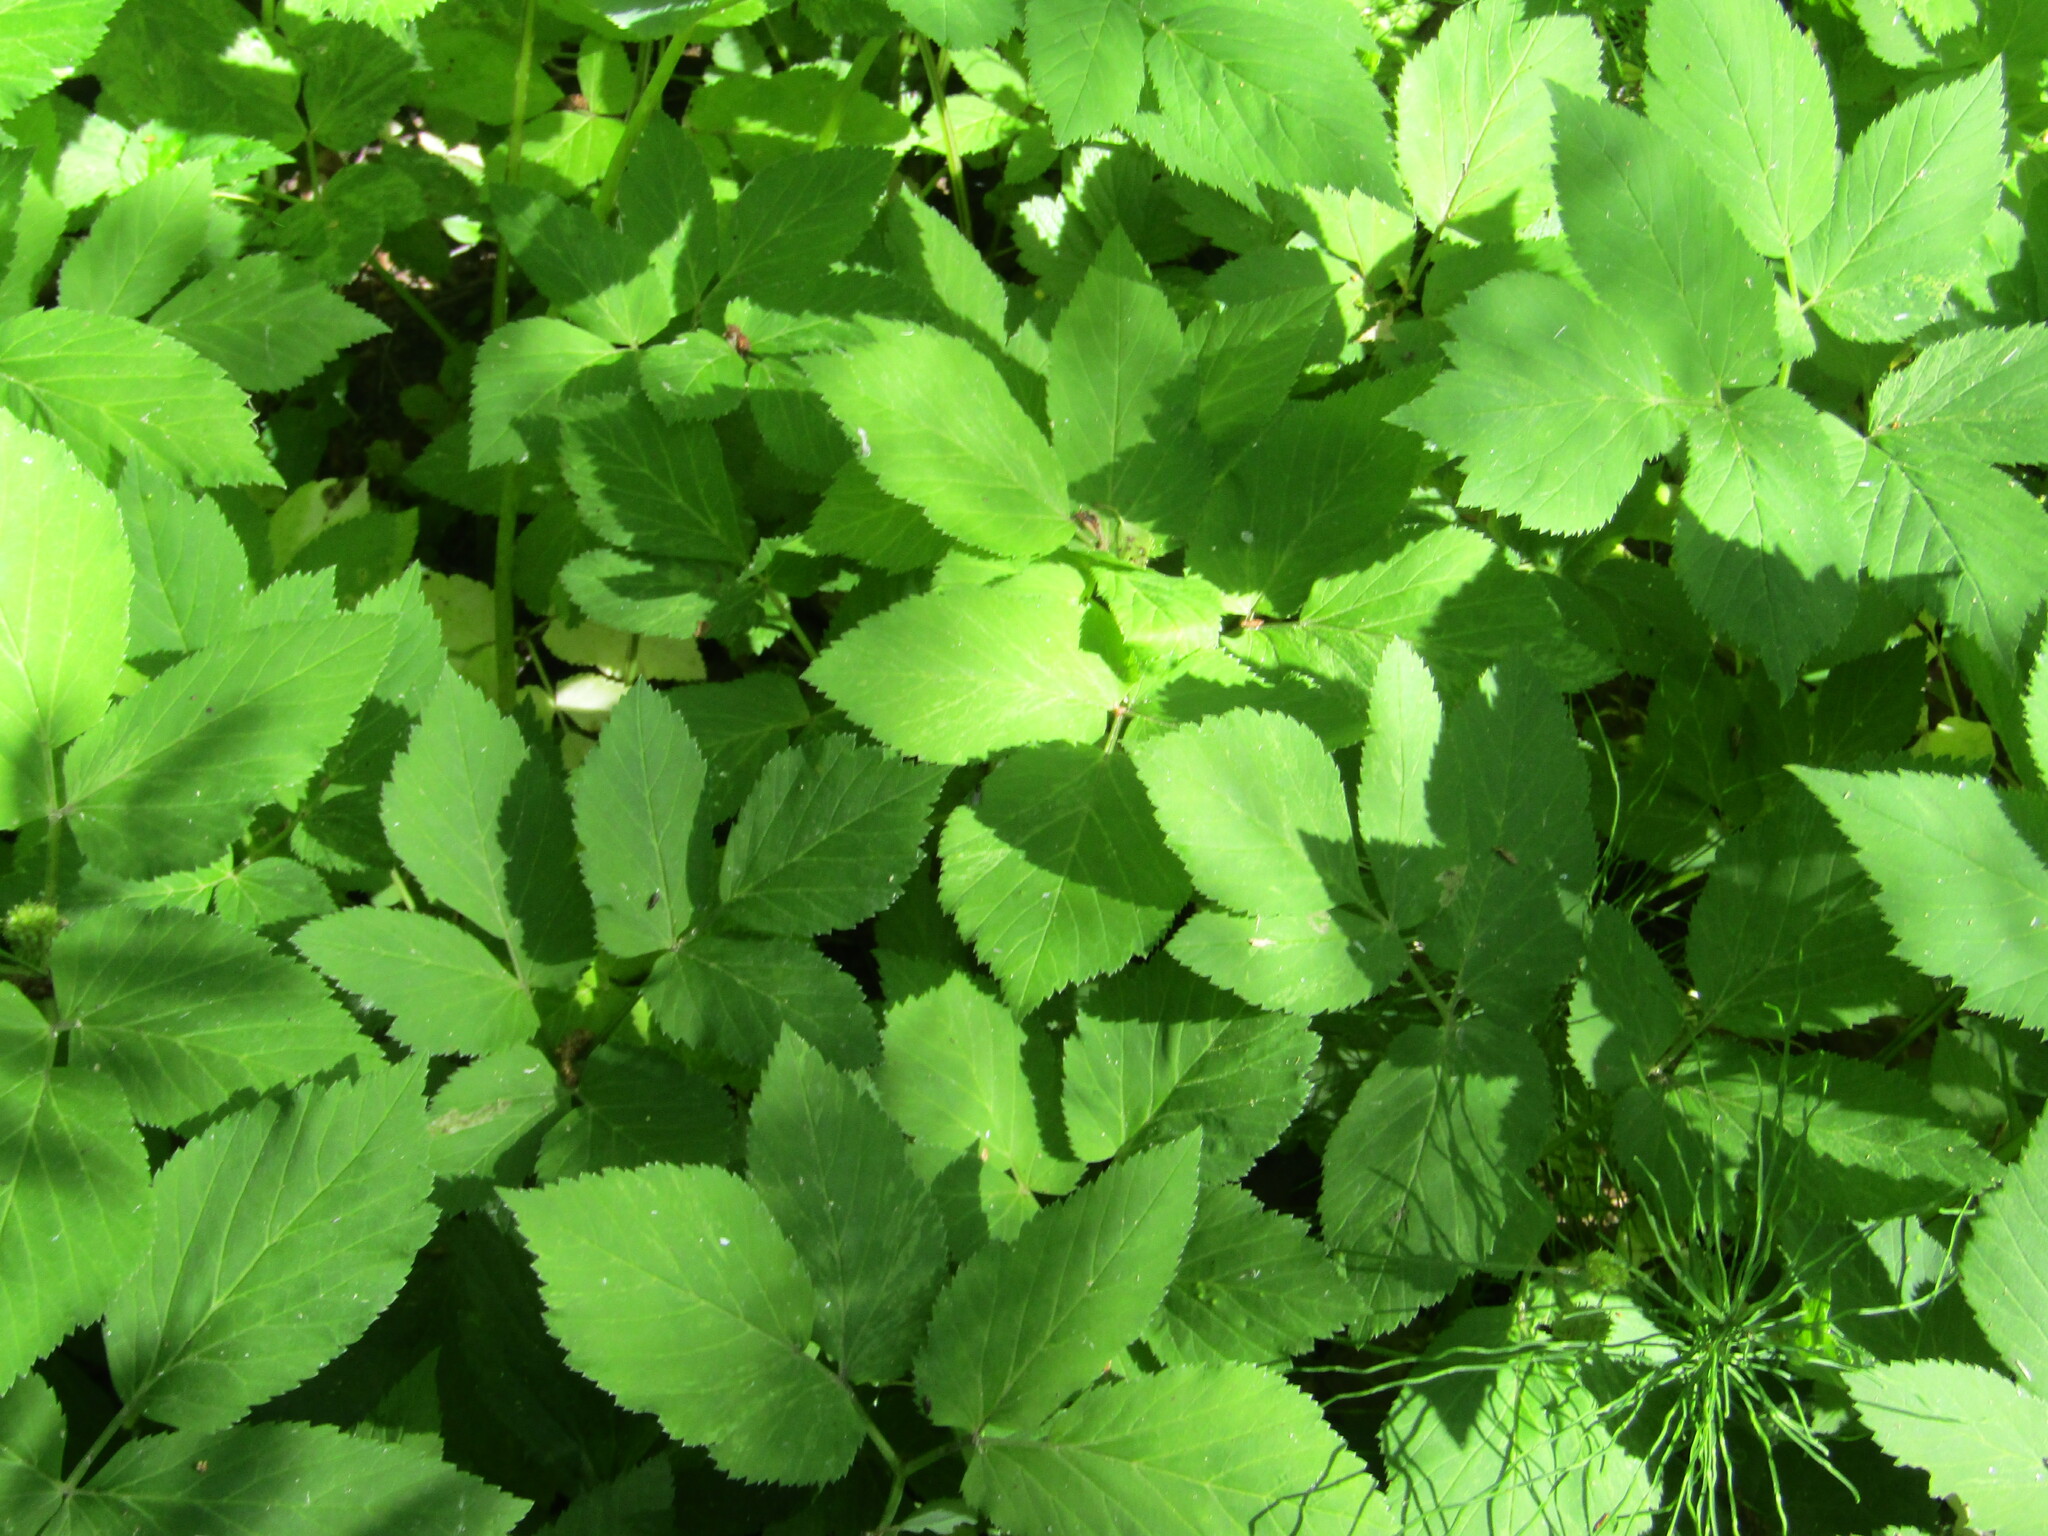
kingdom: Plantae
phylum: Tracheophyta
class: Magnoliopsida
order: Apiales
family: Apiaceae
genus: Aegopodium
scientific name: Aegopodium podagraria
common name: Ground-elder
